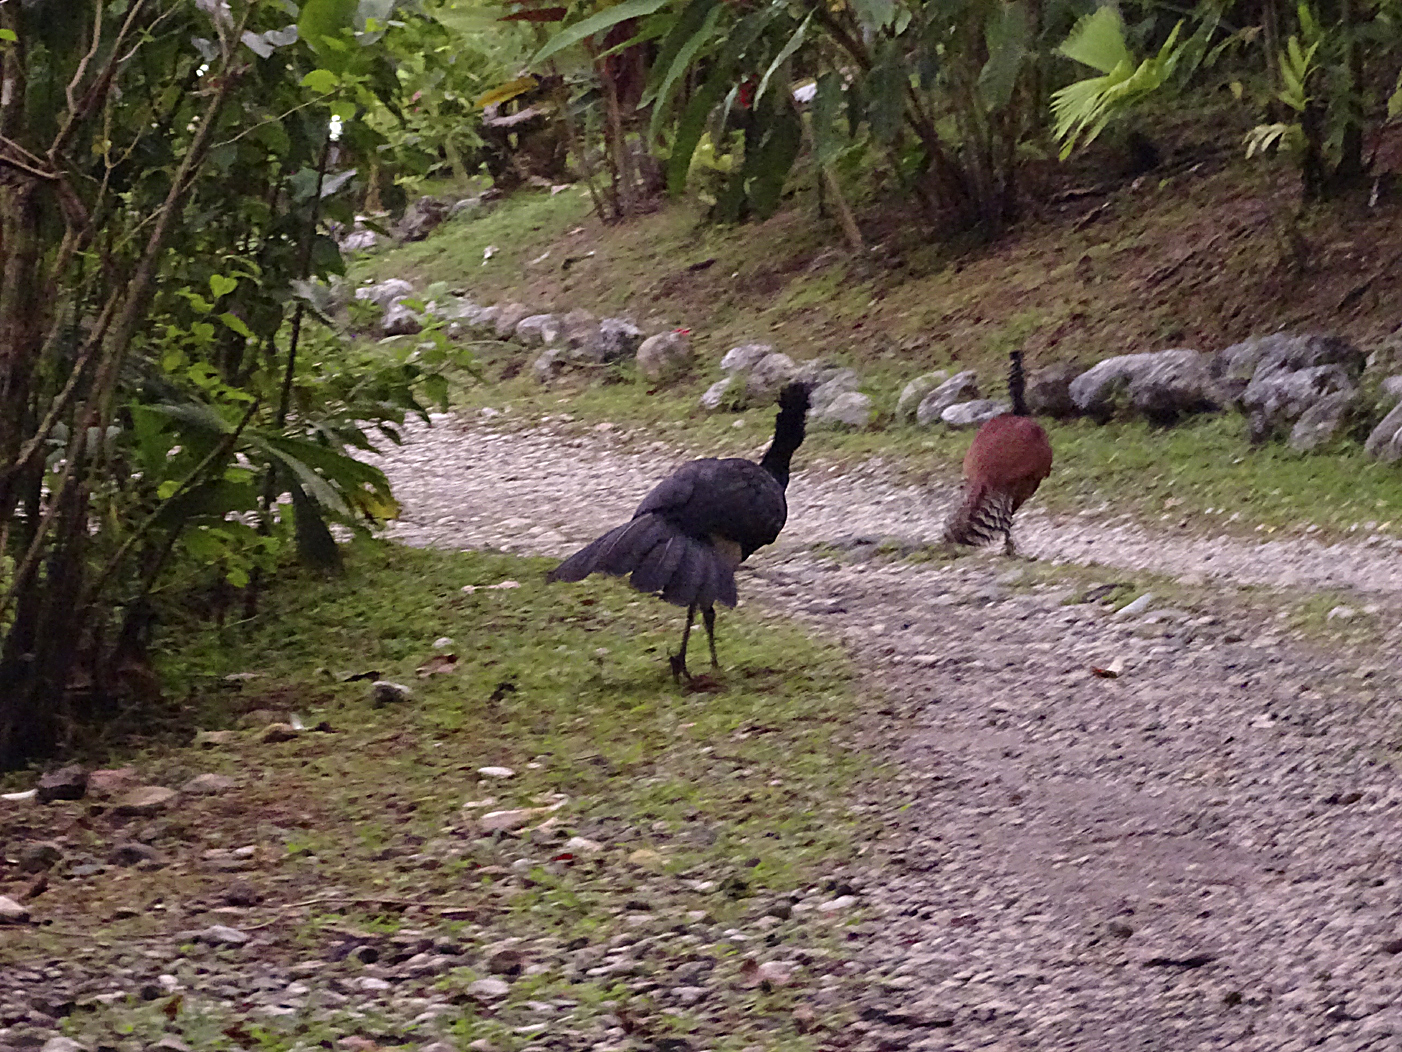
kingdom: Animalia
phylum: Chordata
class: Aves
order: Galliformes
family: Cracidae
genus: Crax
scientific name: Crax rubra
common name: Great curassow
